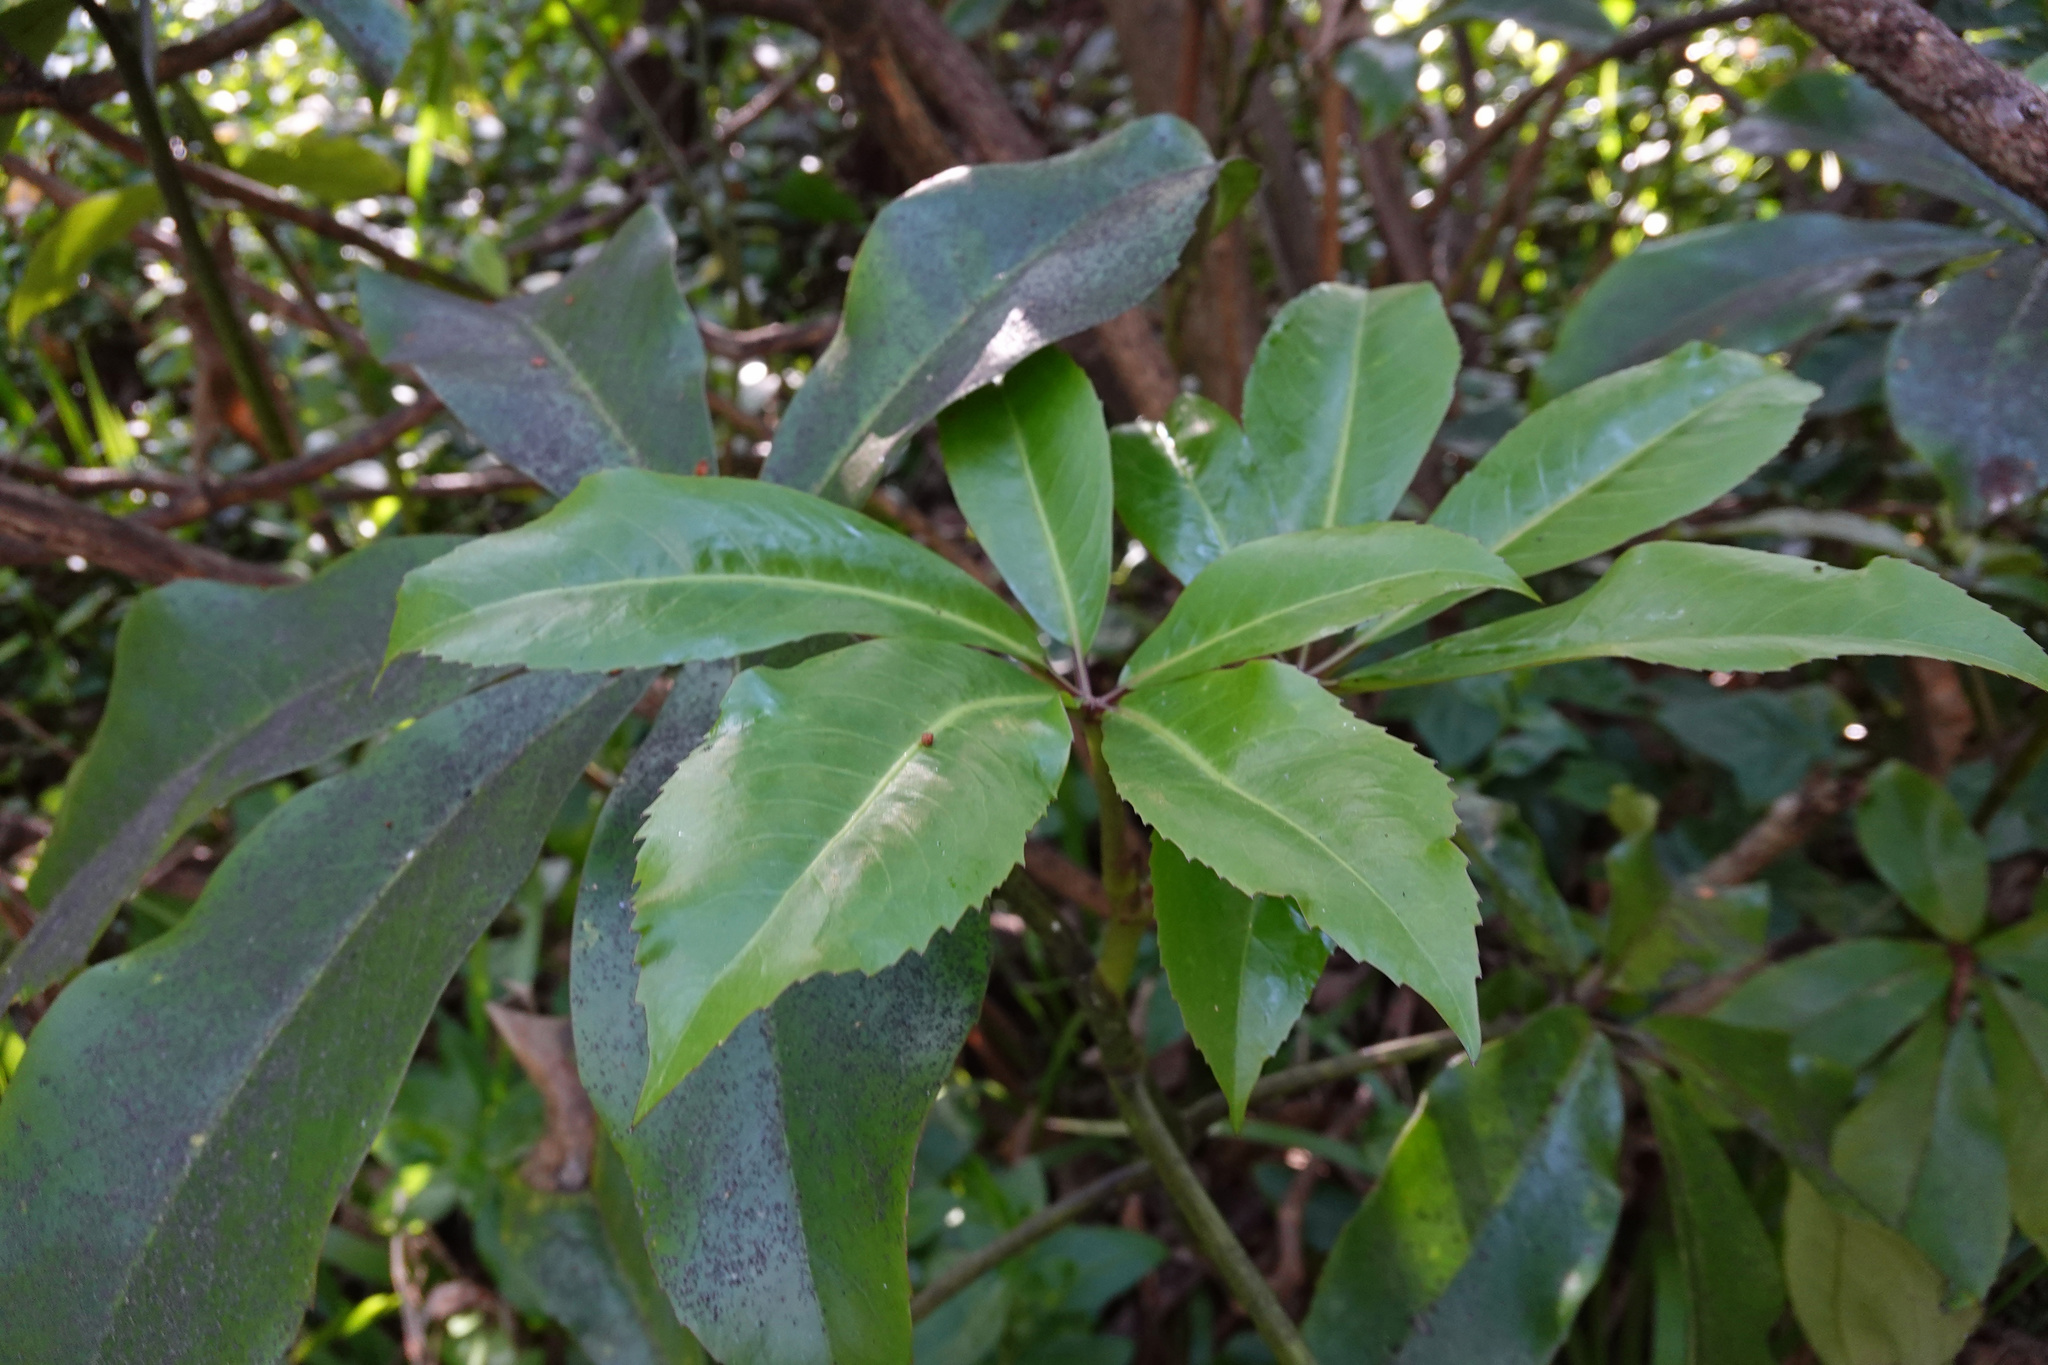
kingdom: Plantae
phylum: Tracheophyta
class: Magnoliopsida
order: Apiales
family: Araliaceae
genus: Neopanax
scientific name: Neopanax arboreus
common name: Five-fingers
